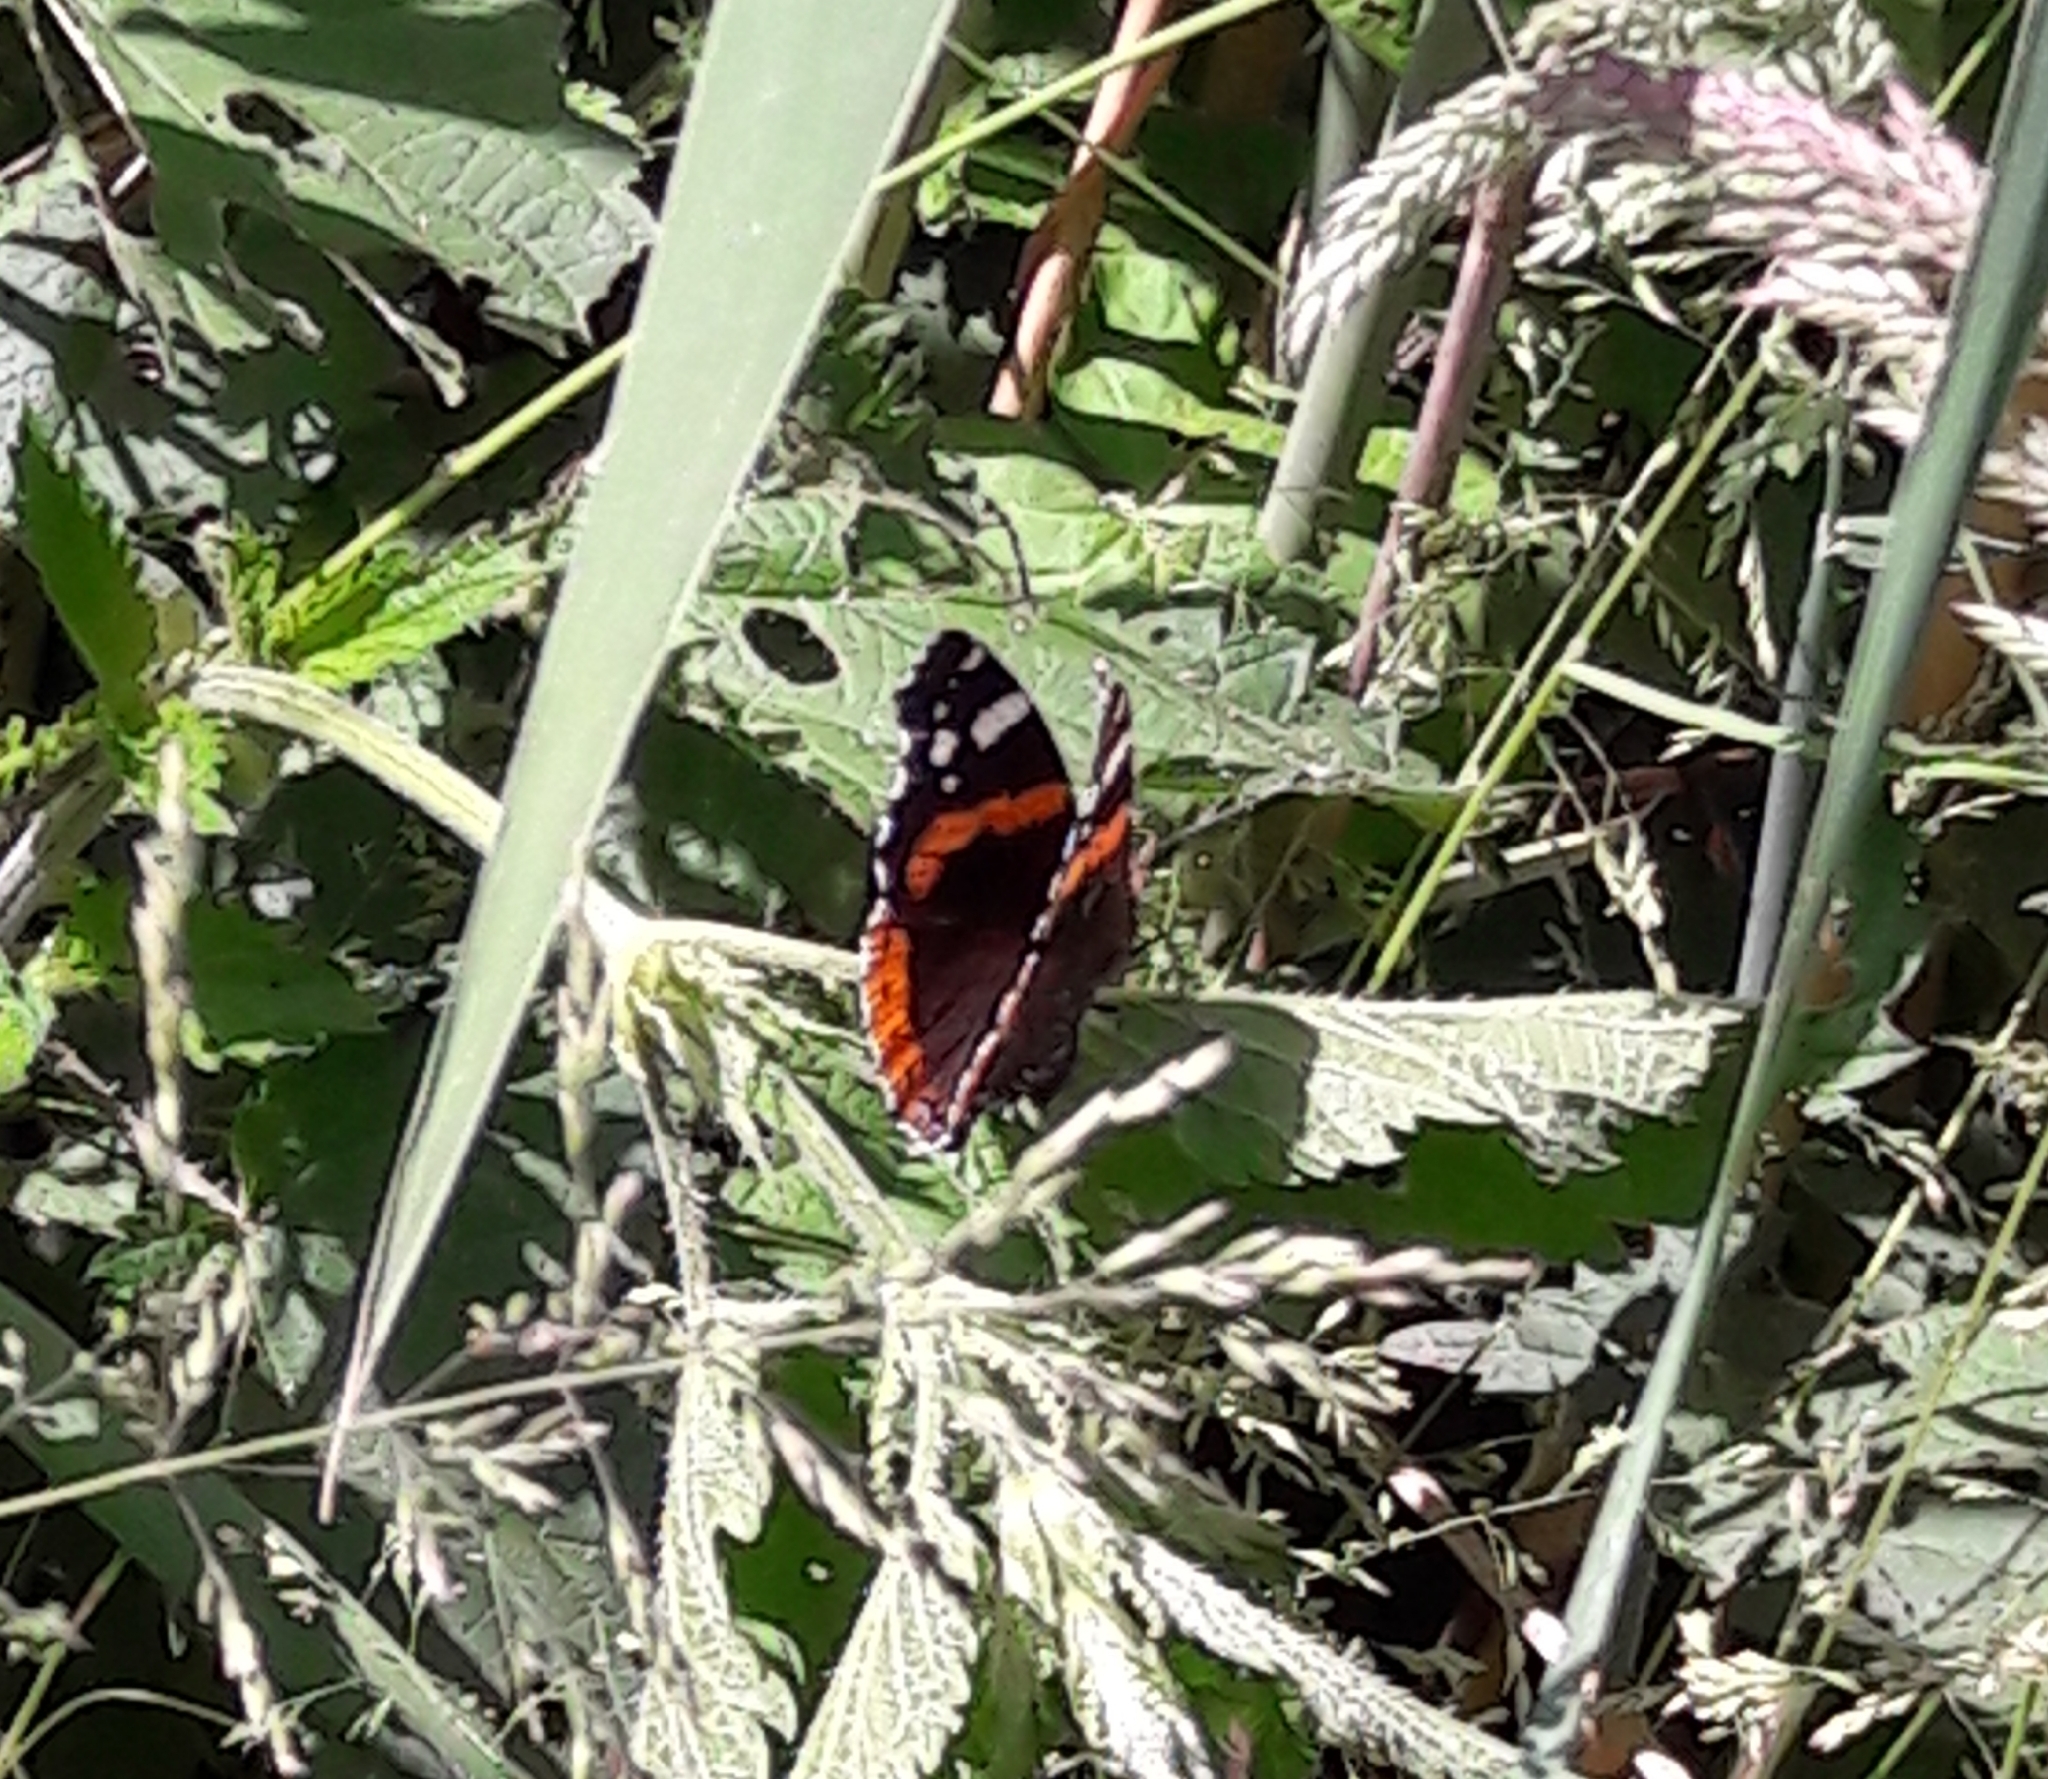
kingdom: Animalia
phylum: Arthropoda
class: Insecta
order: Lepidoptera
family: Nymphalidae
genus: Vanessa
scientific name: Vanessa atalanta
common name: Red admiral
